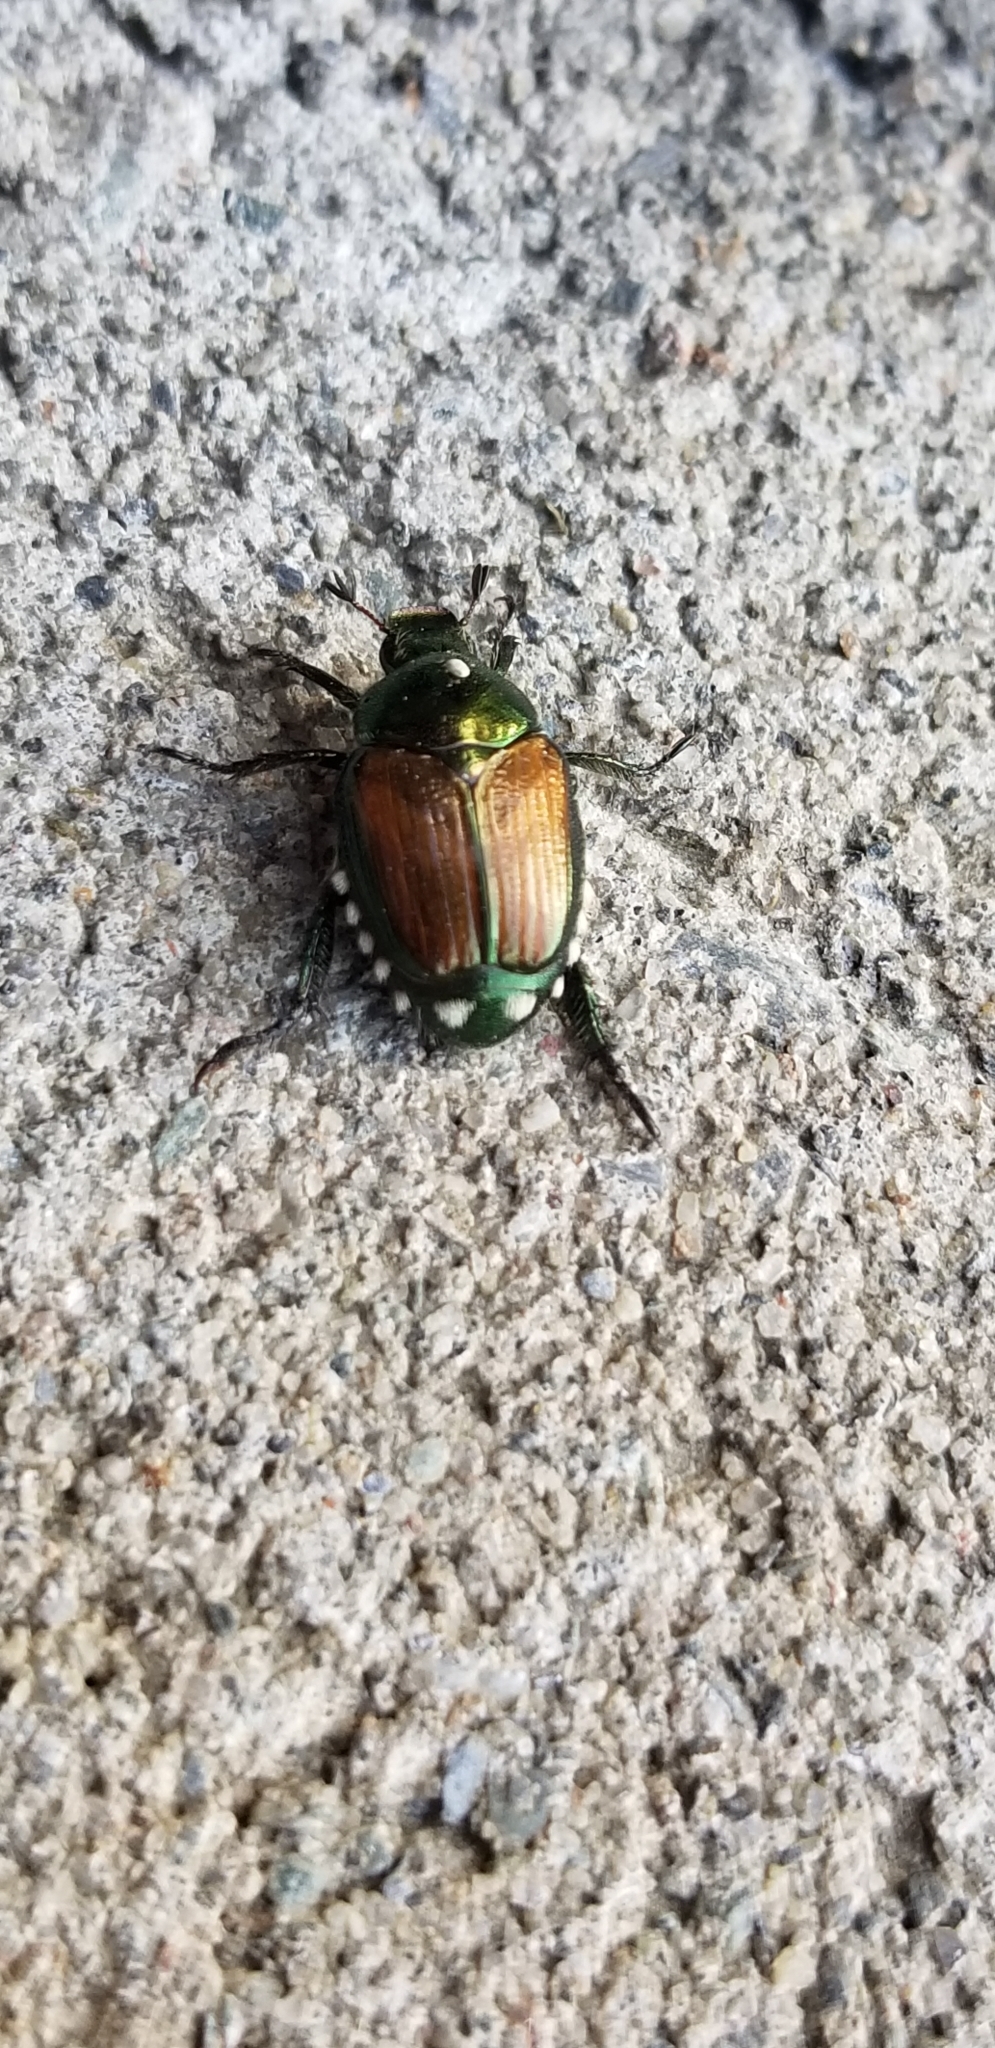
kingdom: Animalia
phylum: Arthropoda
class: Insecta
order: Coleoptera
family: Scarabaeidae
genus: Popillia
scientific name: Popillia japonica
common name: Japanese beetle
